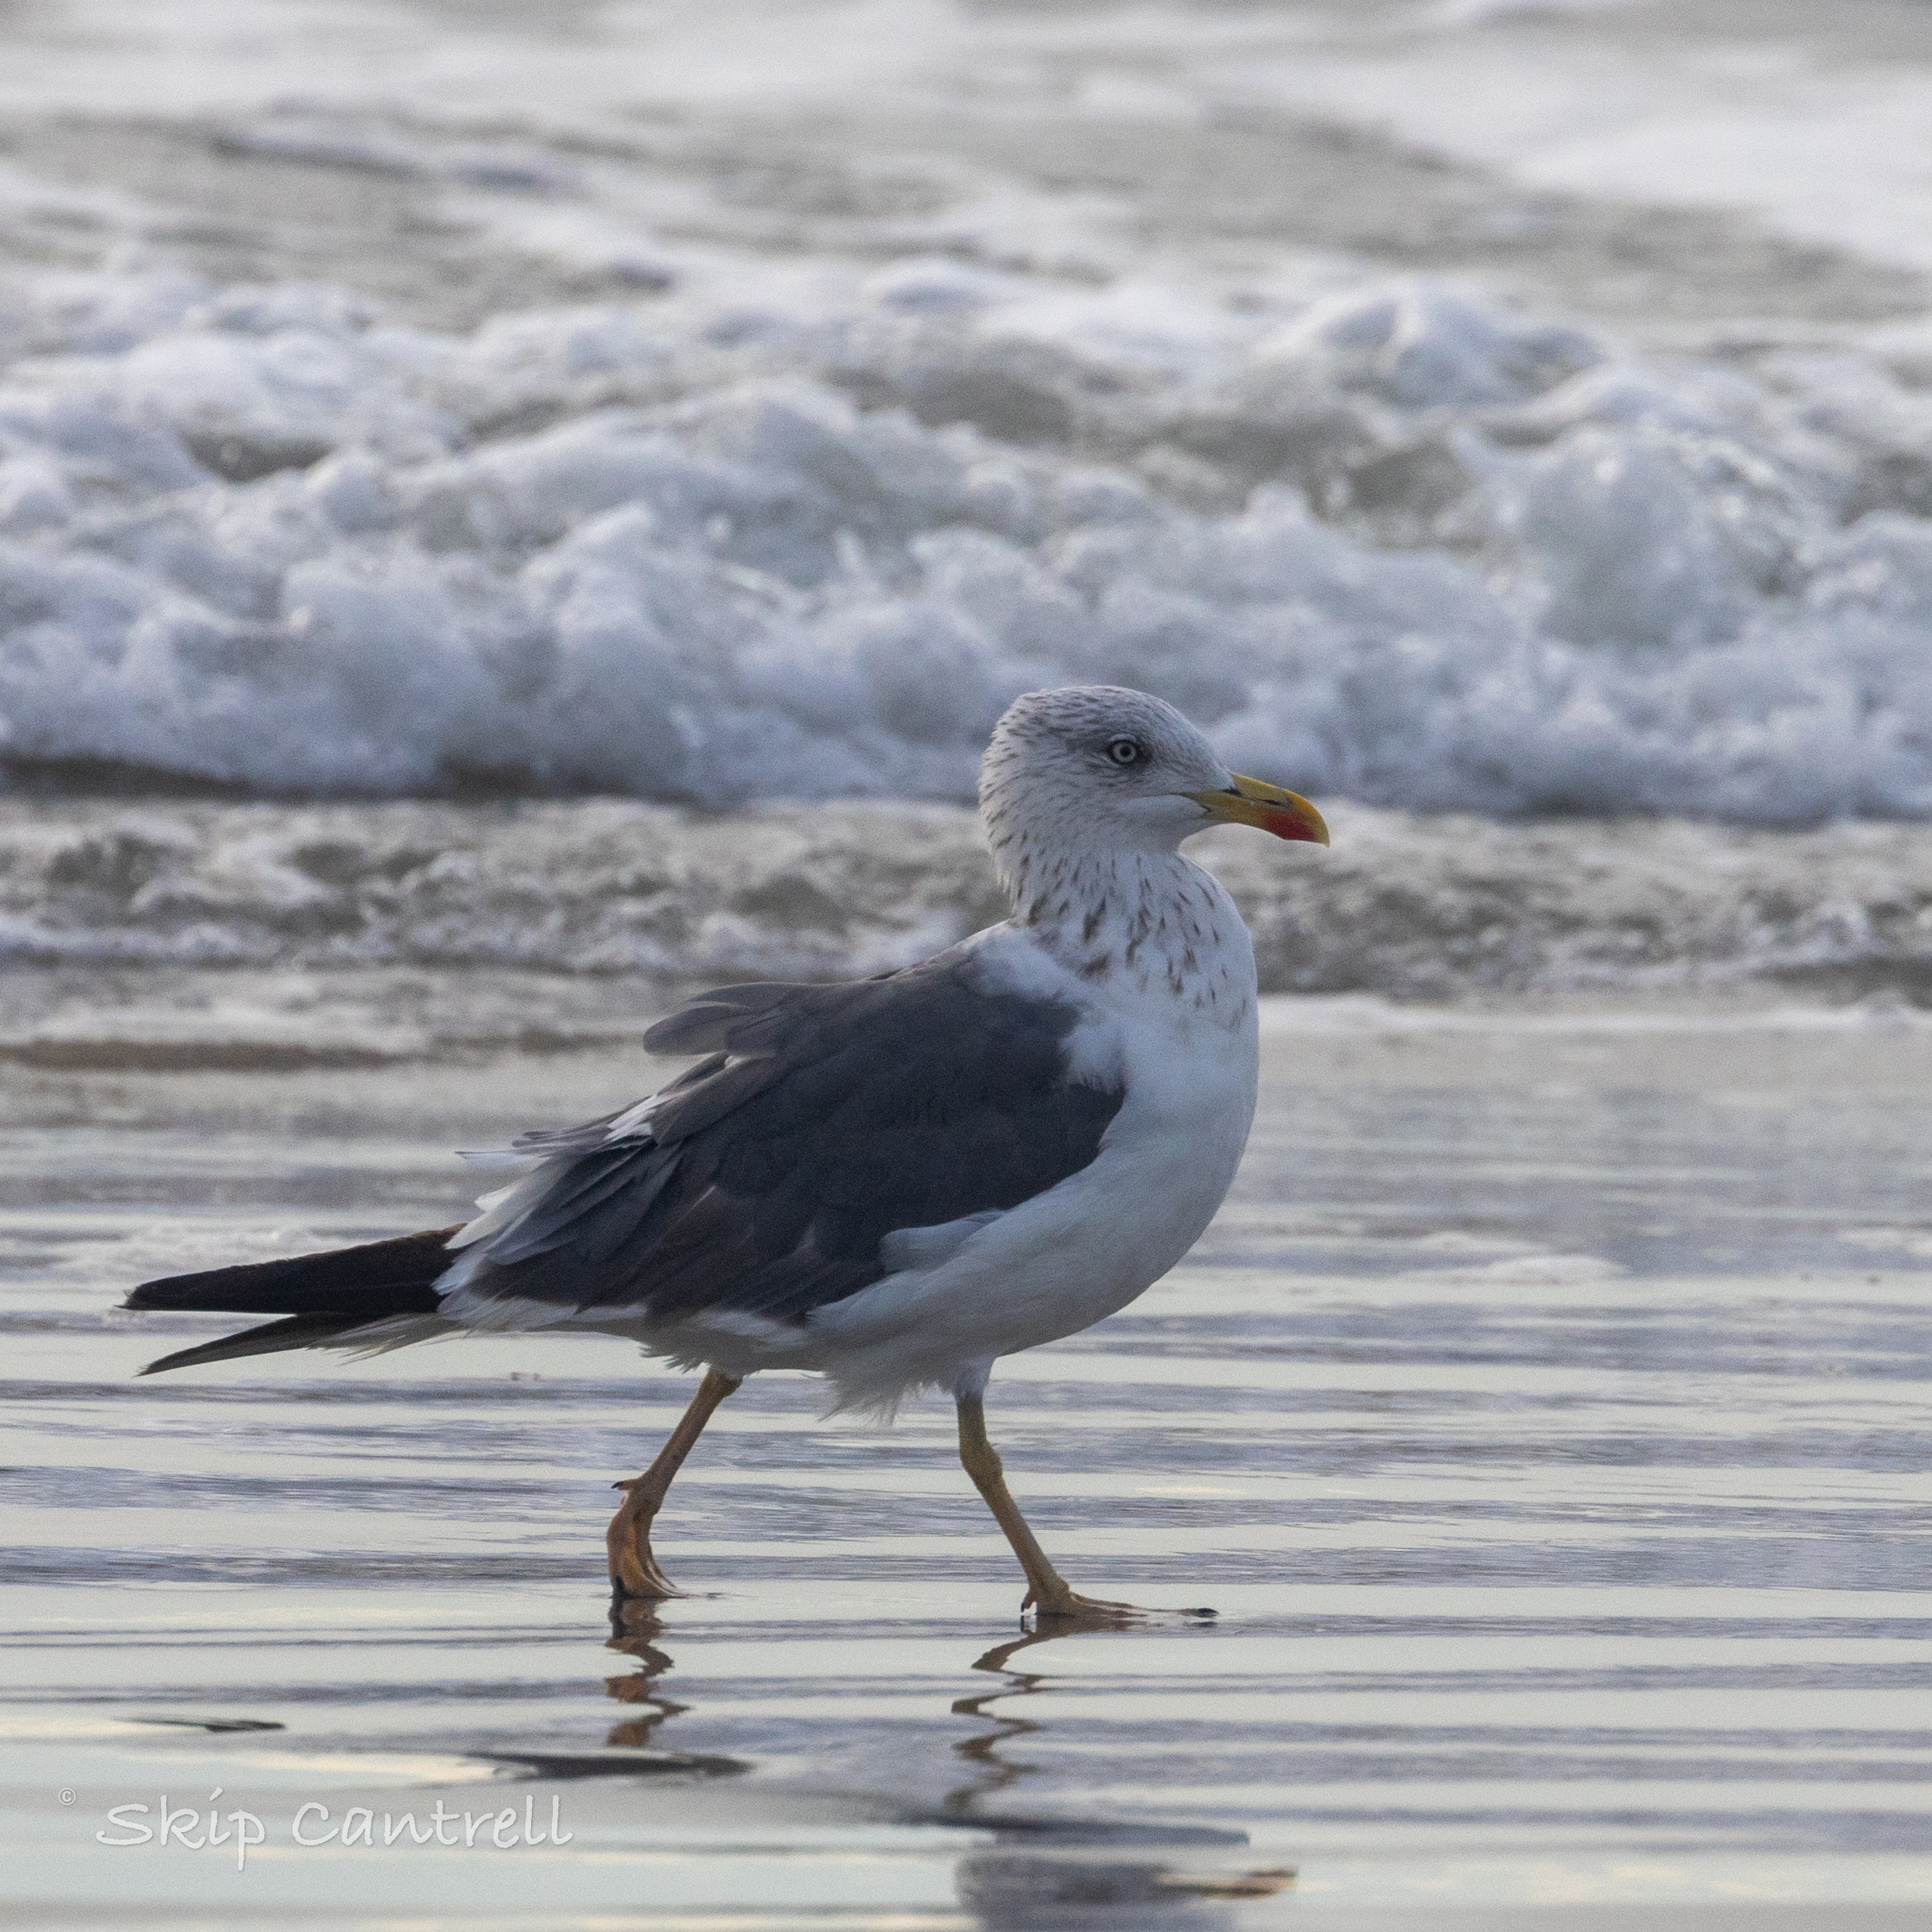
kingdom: Animalia
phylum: Chordata
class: Aves
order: Charadriiformes
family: Laridae
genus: Larus
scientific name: Larus fuscus
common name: Lesser black-backed gull
